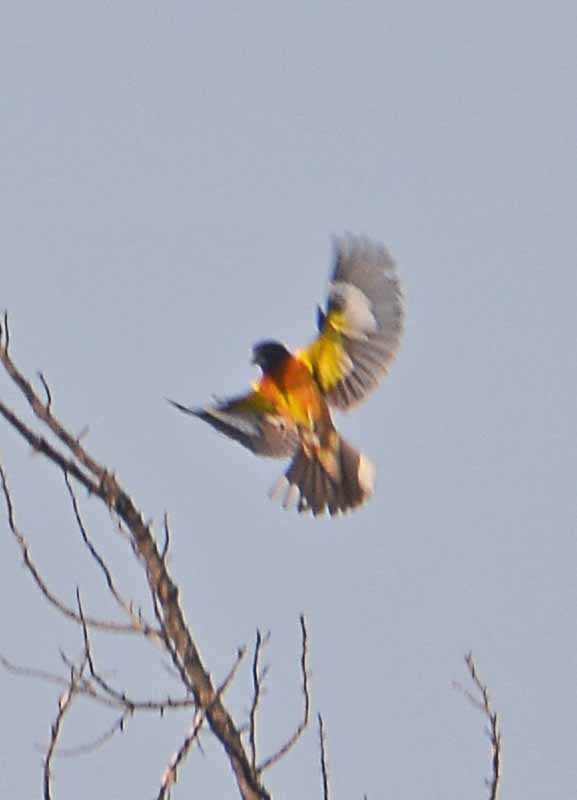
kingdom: Animalia
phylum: Chordata
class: Aves
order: Passeriformes
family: Icteridae
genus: Icterus
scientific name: Icterus galbula
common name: Baltimore oriole
